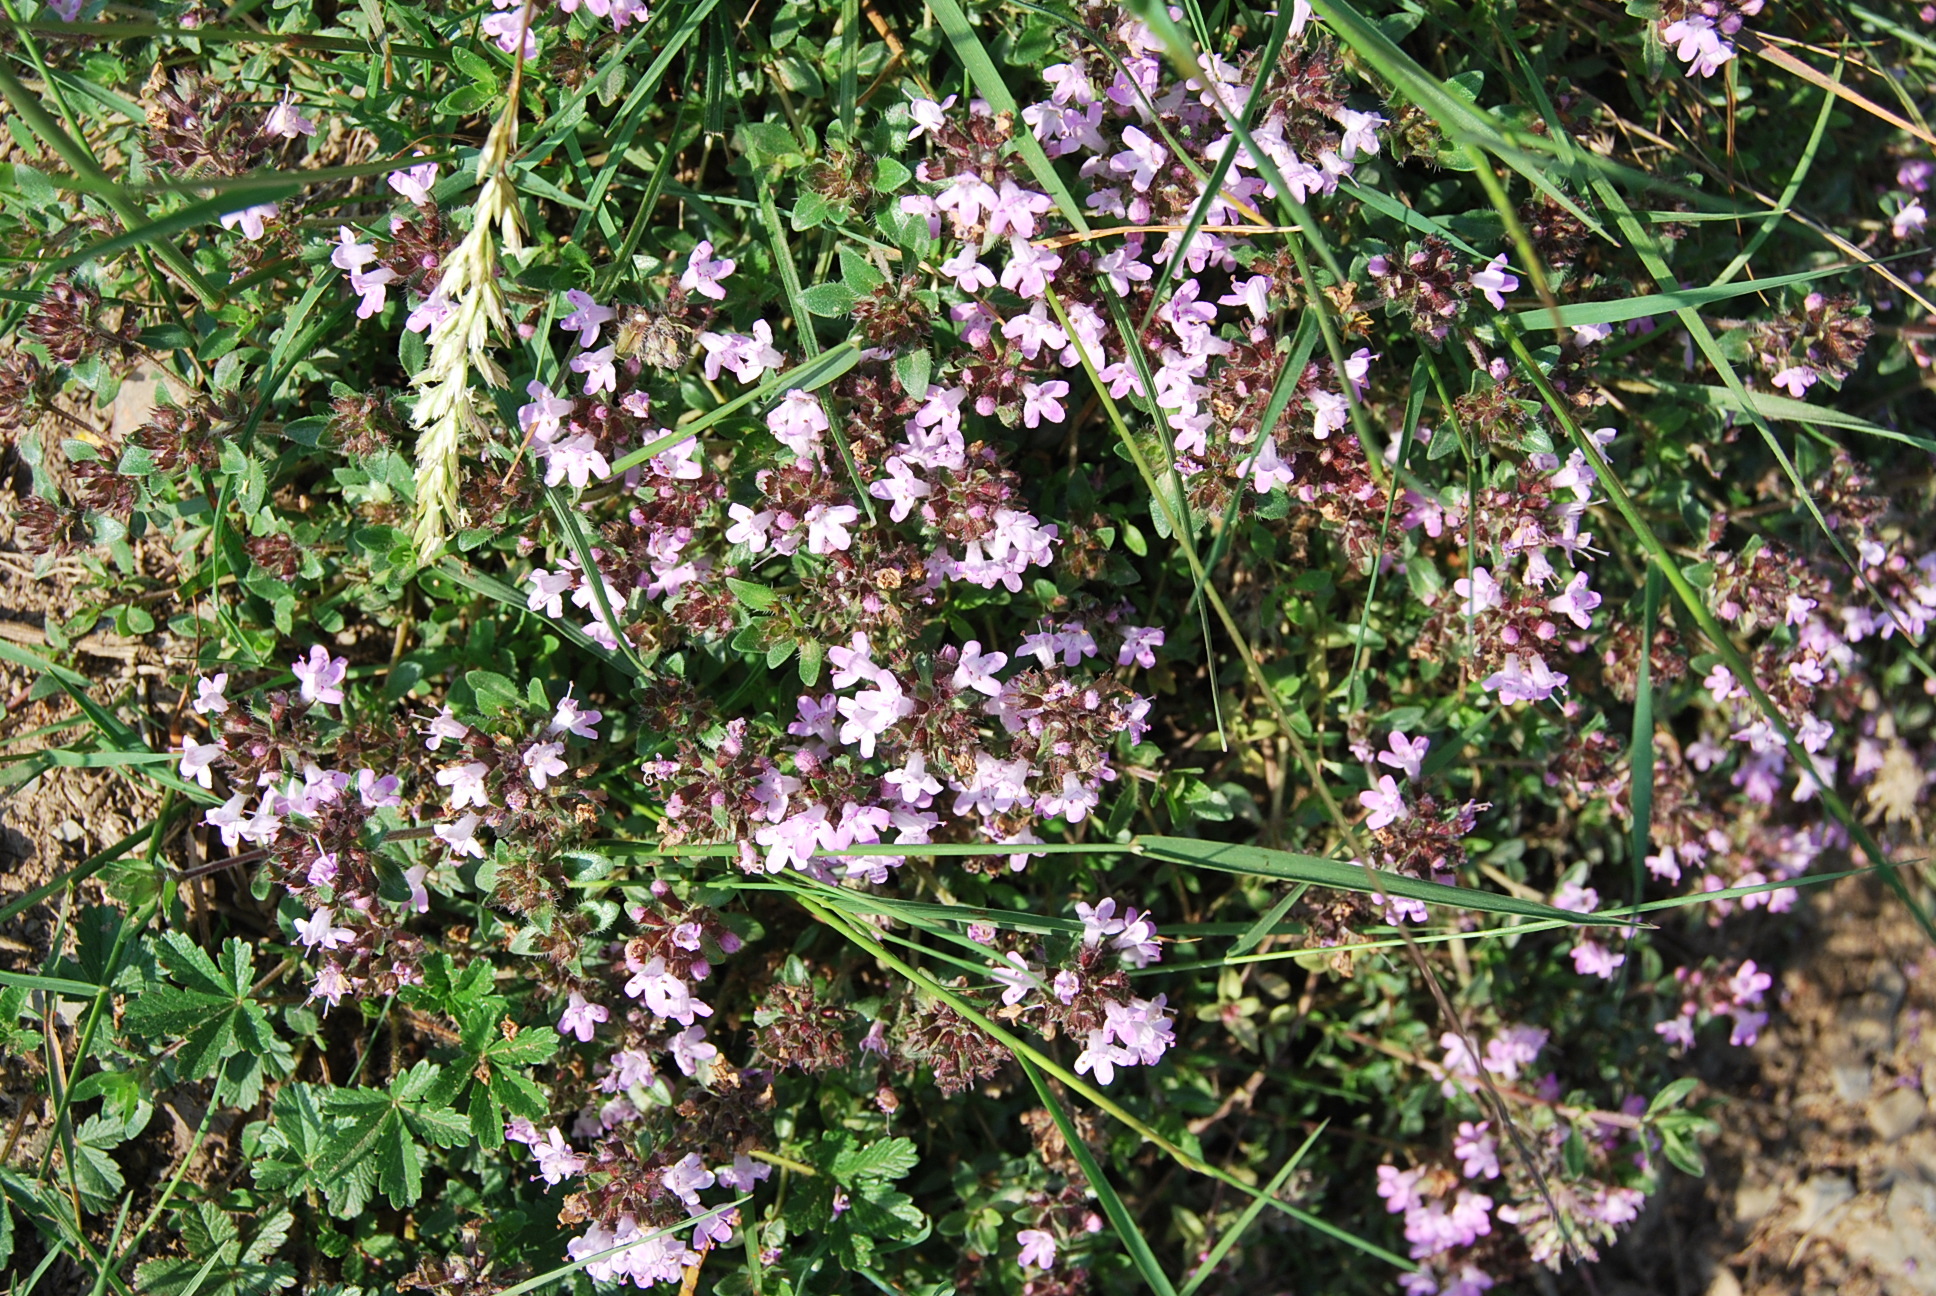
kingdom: Plantae
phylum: Tracheophyta
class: Magnoliopsida
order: Lamiales
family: Lamiaceae
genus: Thymus
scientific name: Thymus pulegioides
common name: Large thyme
